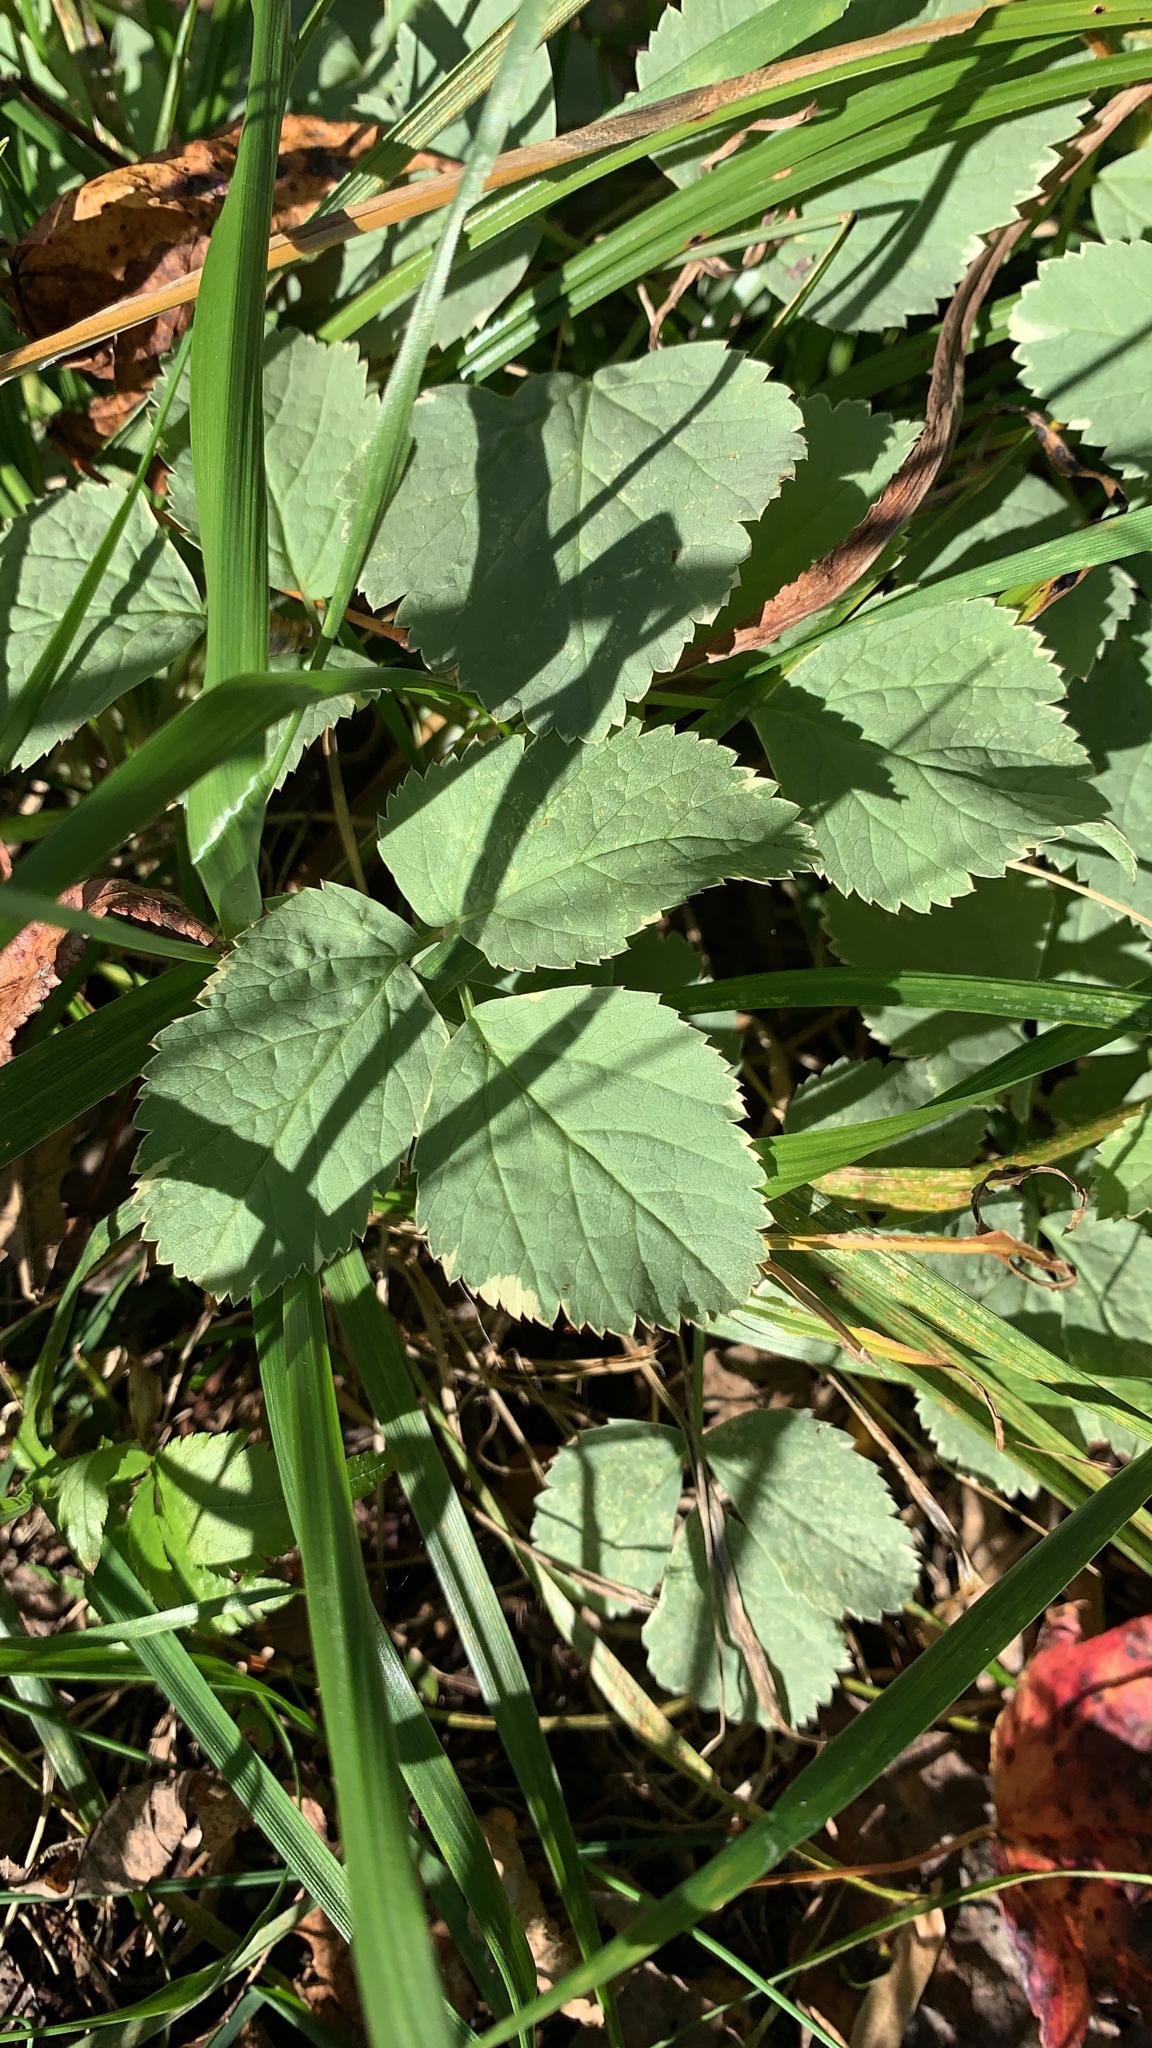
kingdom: Plantae
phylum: Tracheophyta
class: Magnoliopsida
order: Apiales
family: Apiaceae
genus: Aegopodium
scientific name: Aegopodium podagraria
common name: Ground-elder
